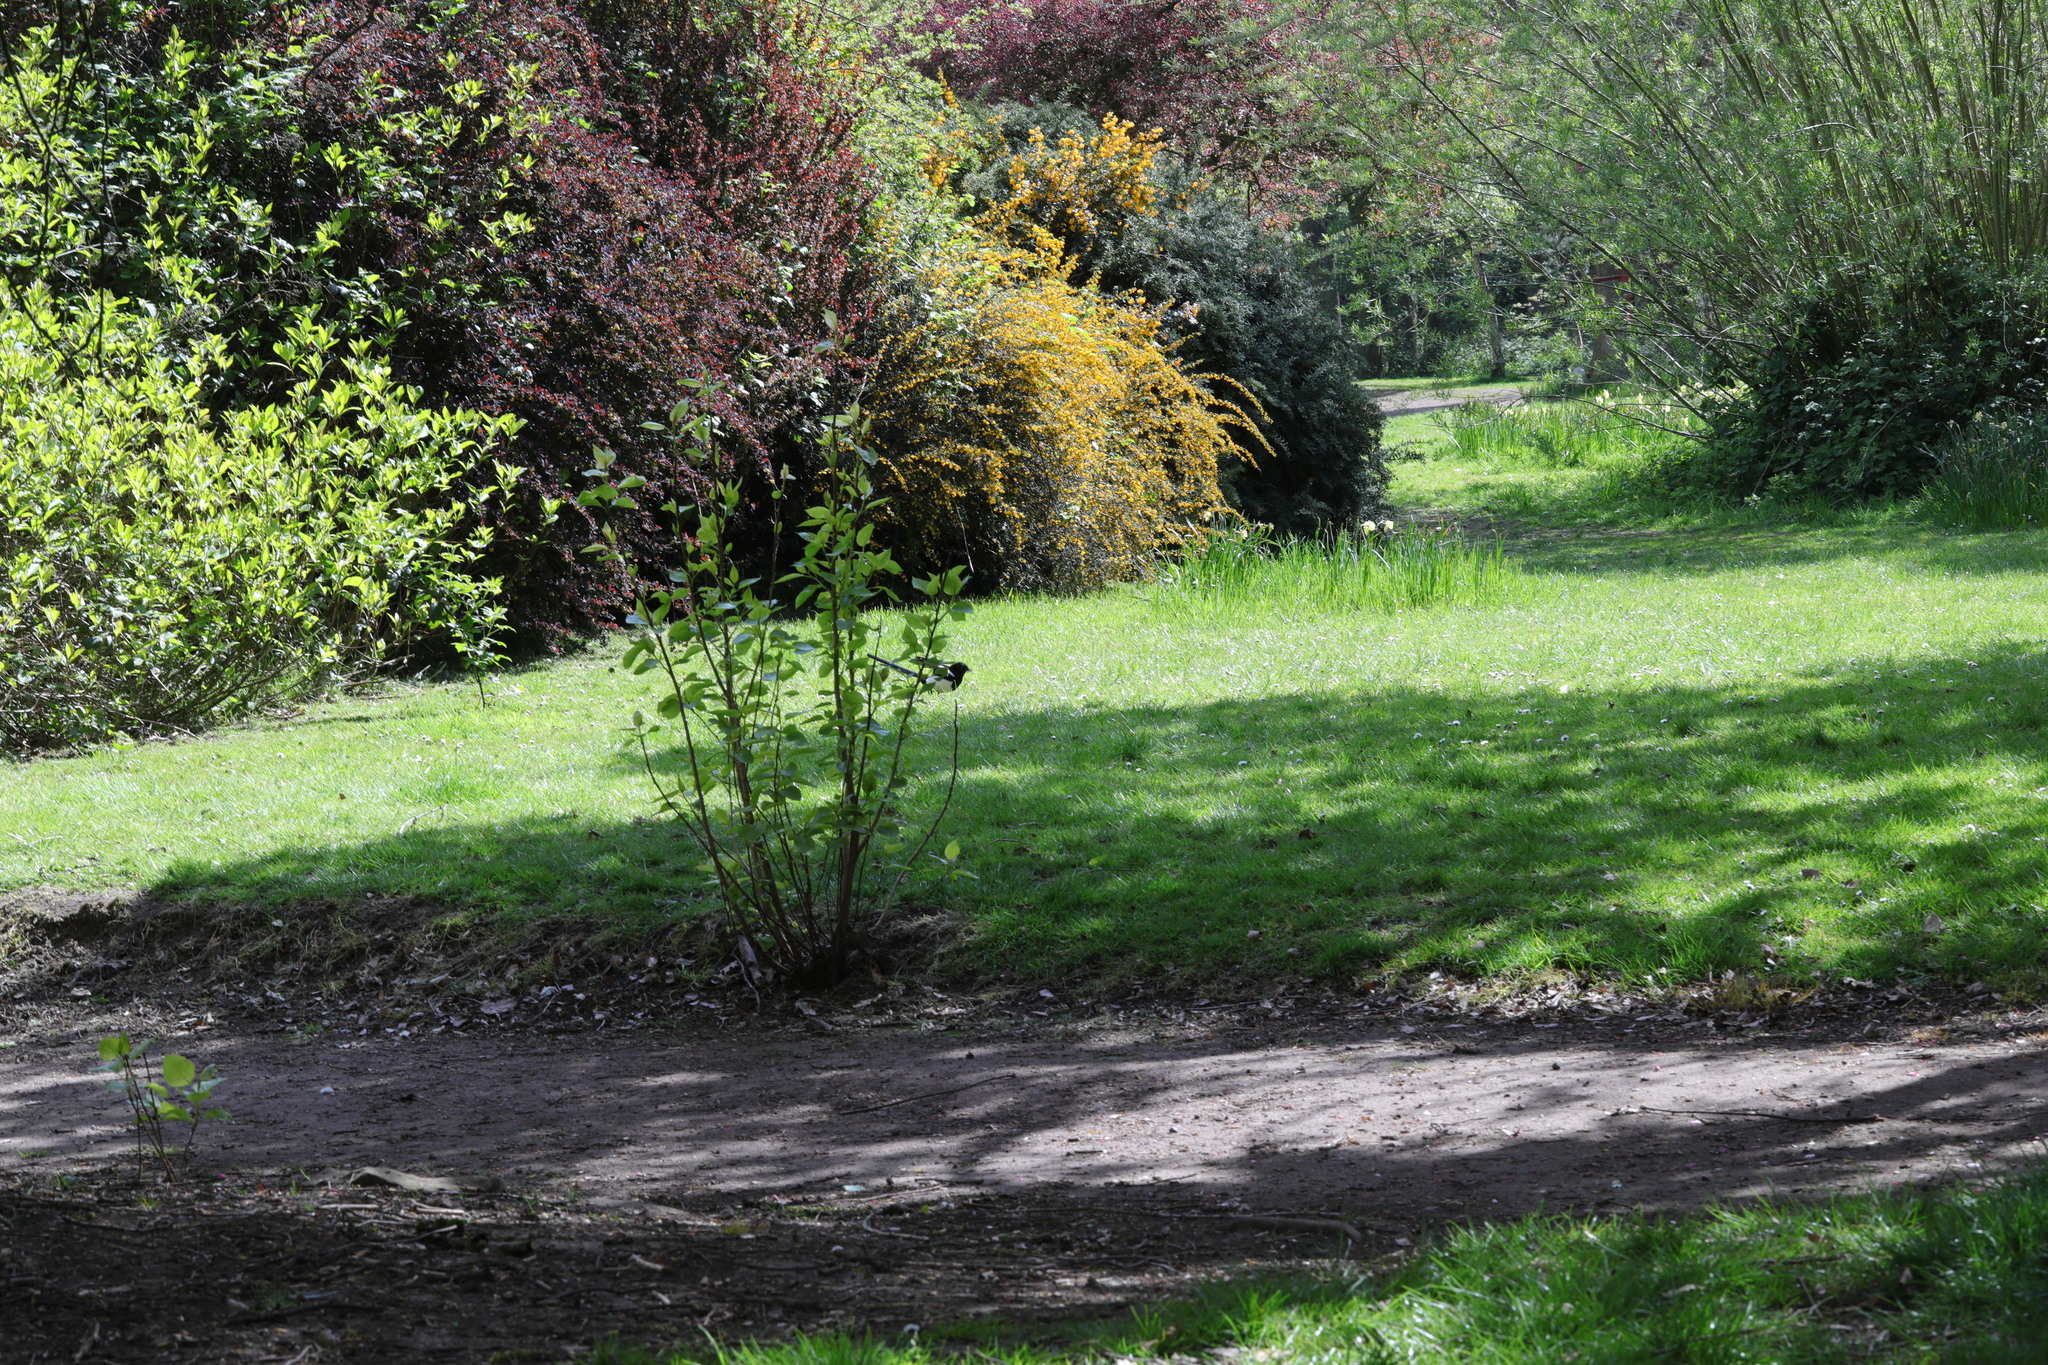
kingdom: Animalia
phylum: Chordata
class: Aves
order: Passeriformes
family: Corvidae
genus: Pica
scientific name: Pica pica
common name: Eurasian magpie
